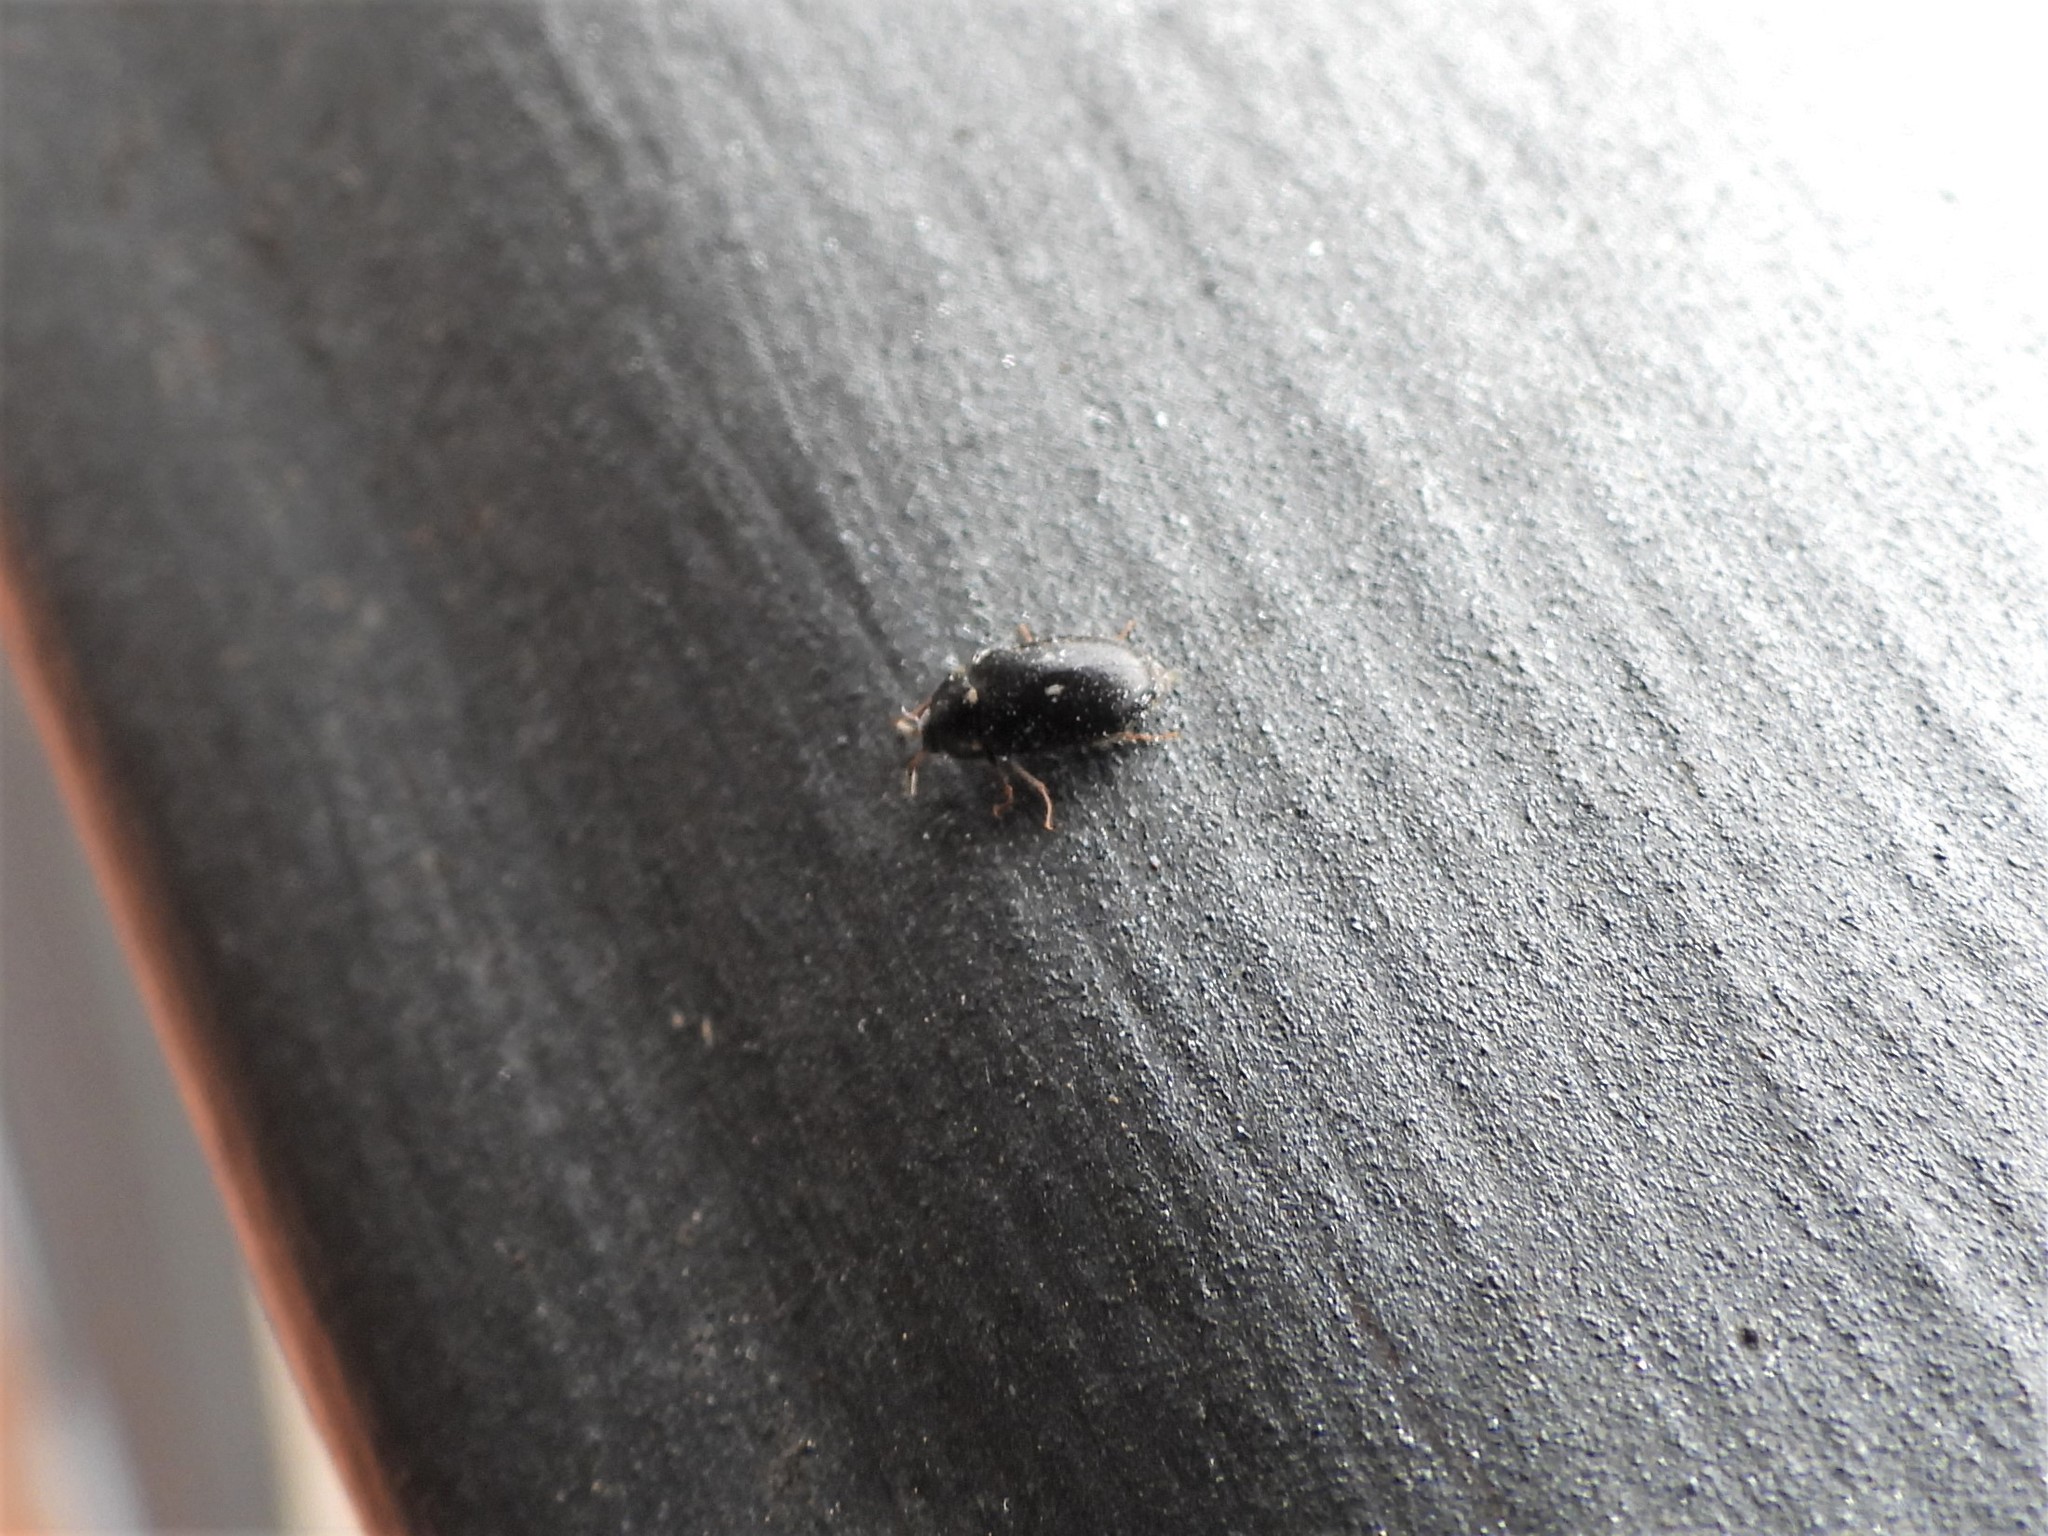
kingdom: Animalia
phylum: Arthropoda
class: Insecta
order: Coleoptera
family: Dermestidae
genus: Attagenus
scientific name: Attagenus pellio
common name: Two-spotted carpet beetle
